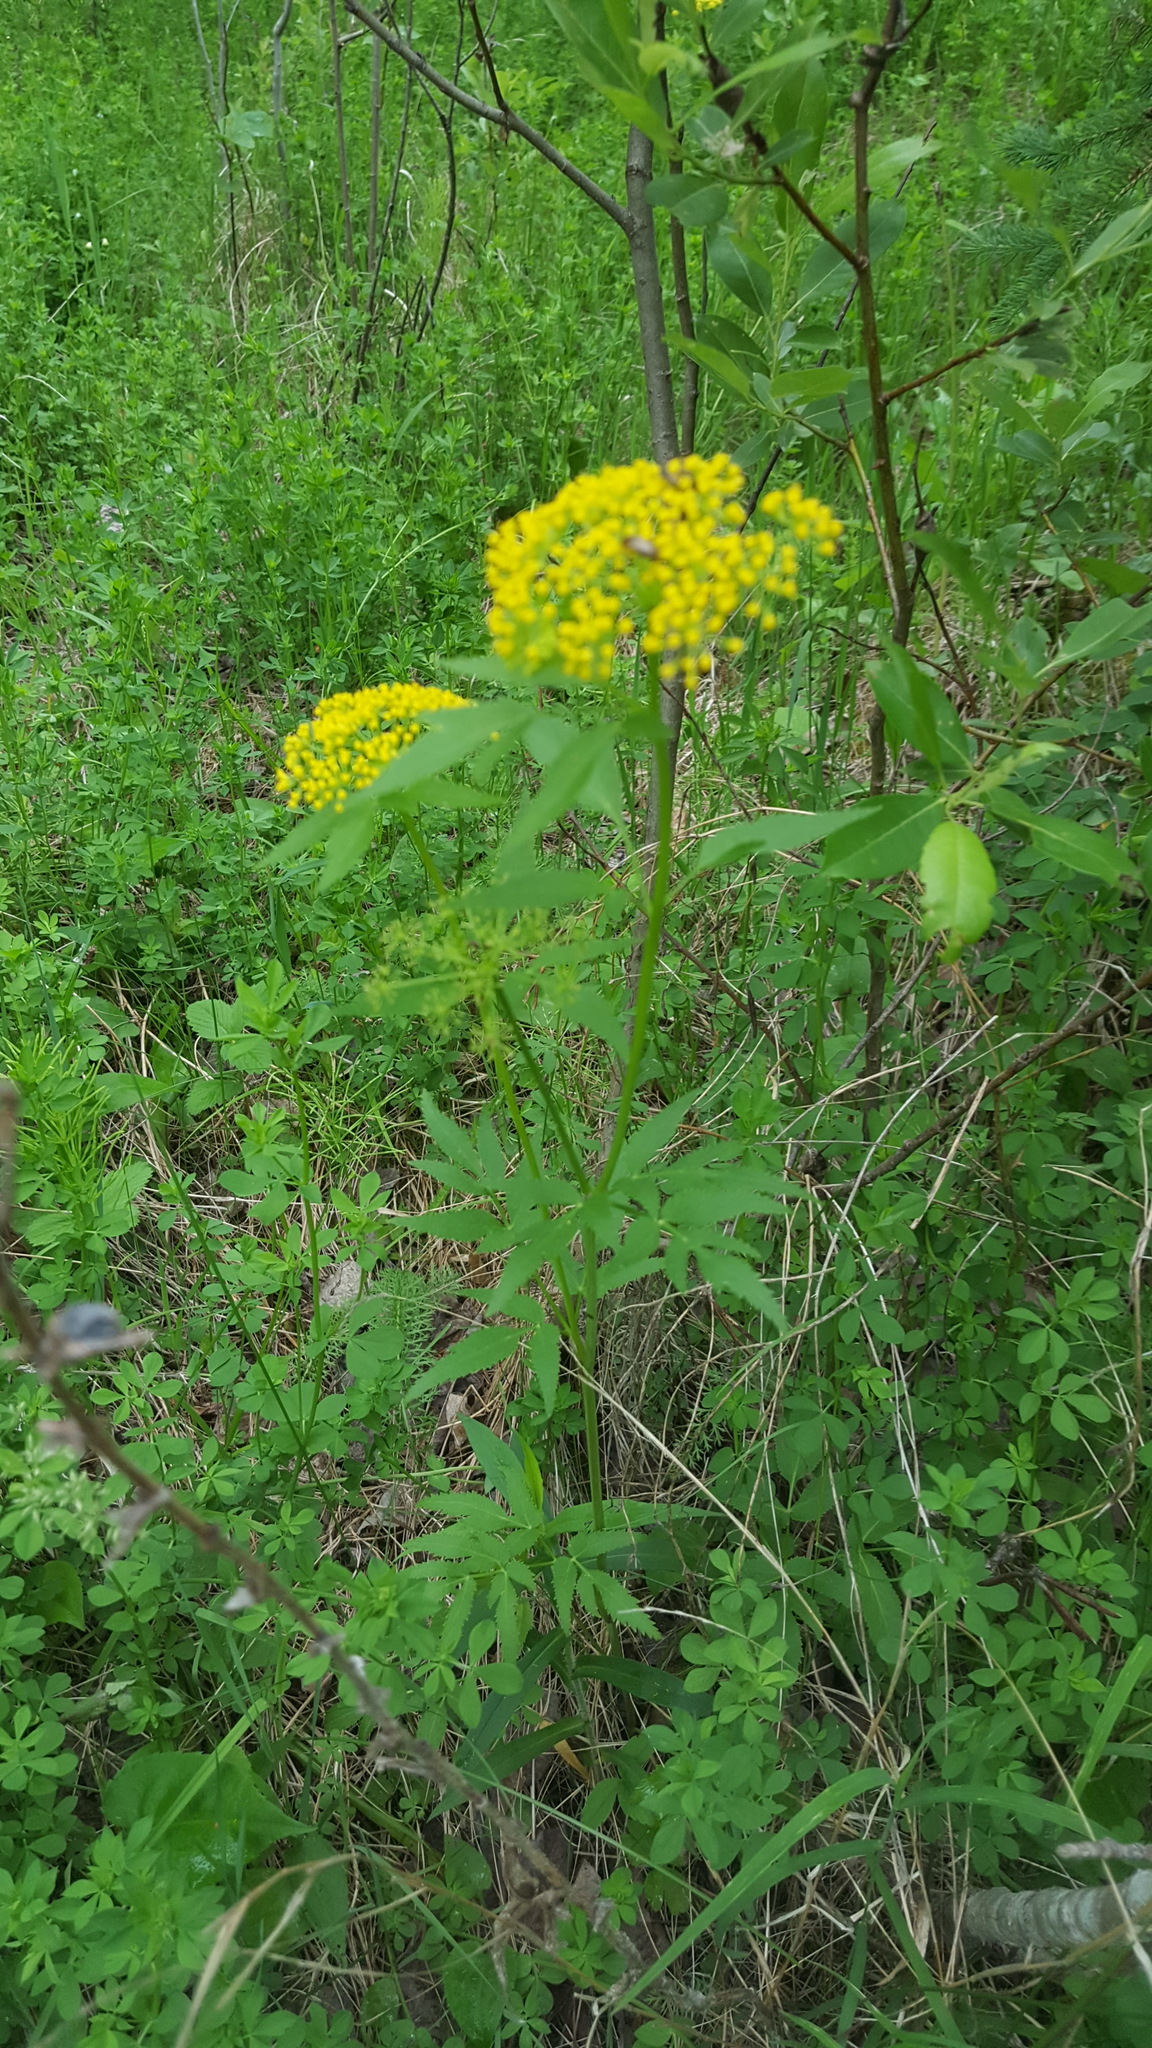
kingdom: Plantae
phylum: Tracheophyta
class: Magnoliopsida
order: Apiales
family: Apiaceae
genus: Zizia
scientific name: Zizia aurea
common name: Golden alexanders
